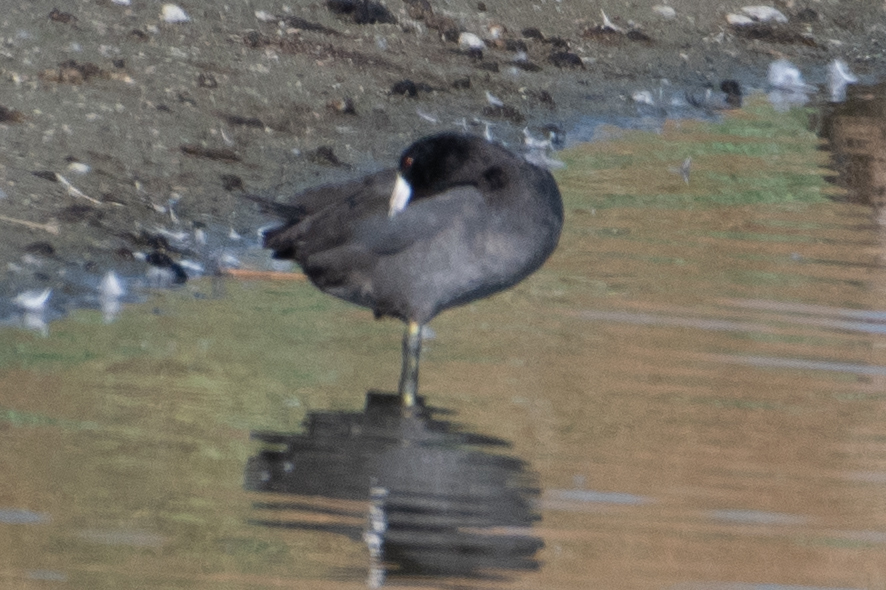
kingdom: Animalia
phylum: Chordata
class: Aves
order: Gruiformes
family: Rallidae
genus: Fulica
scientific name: Fulica americana
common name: American coot
